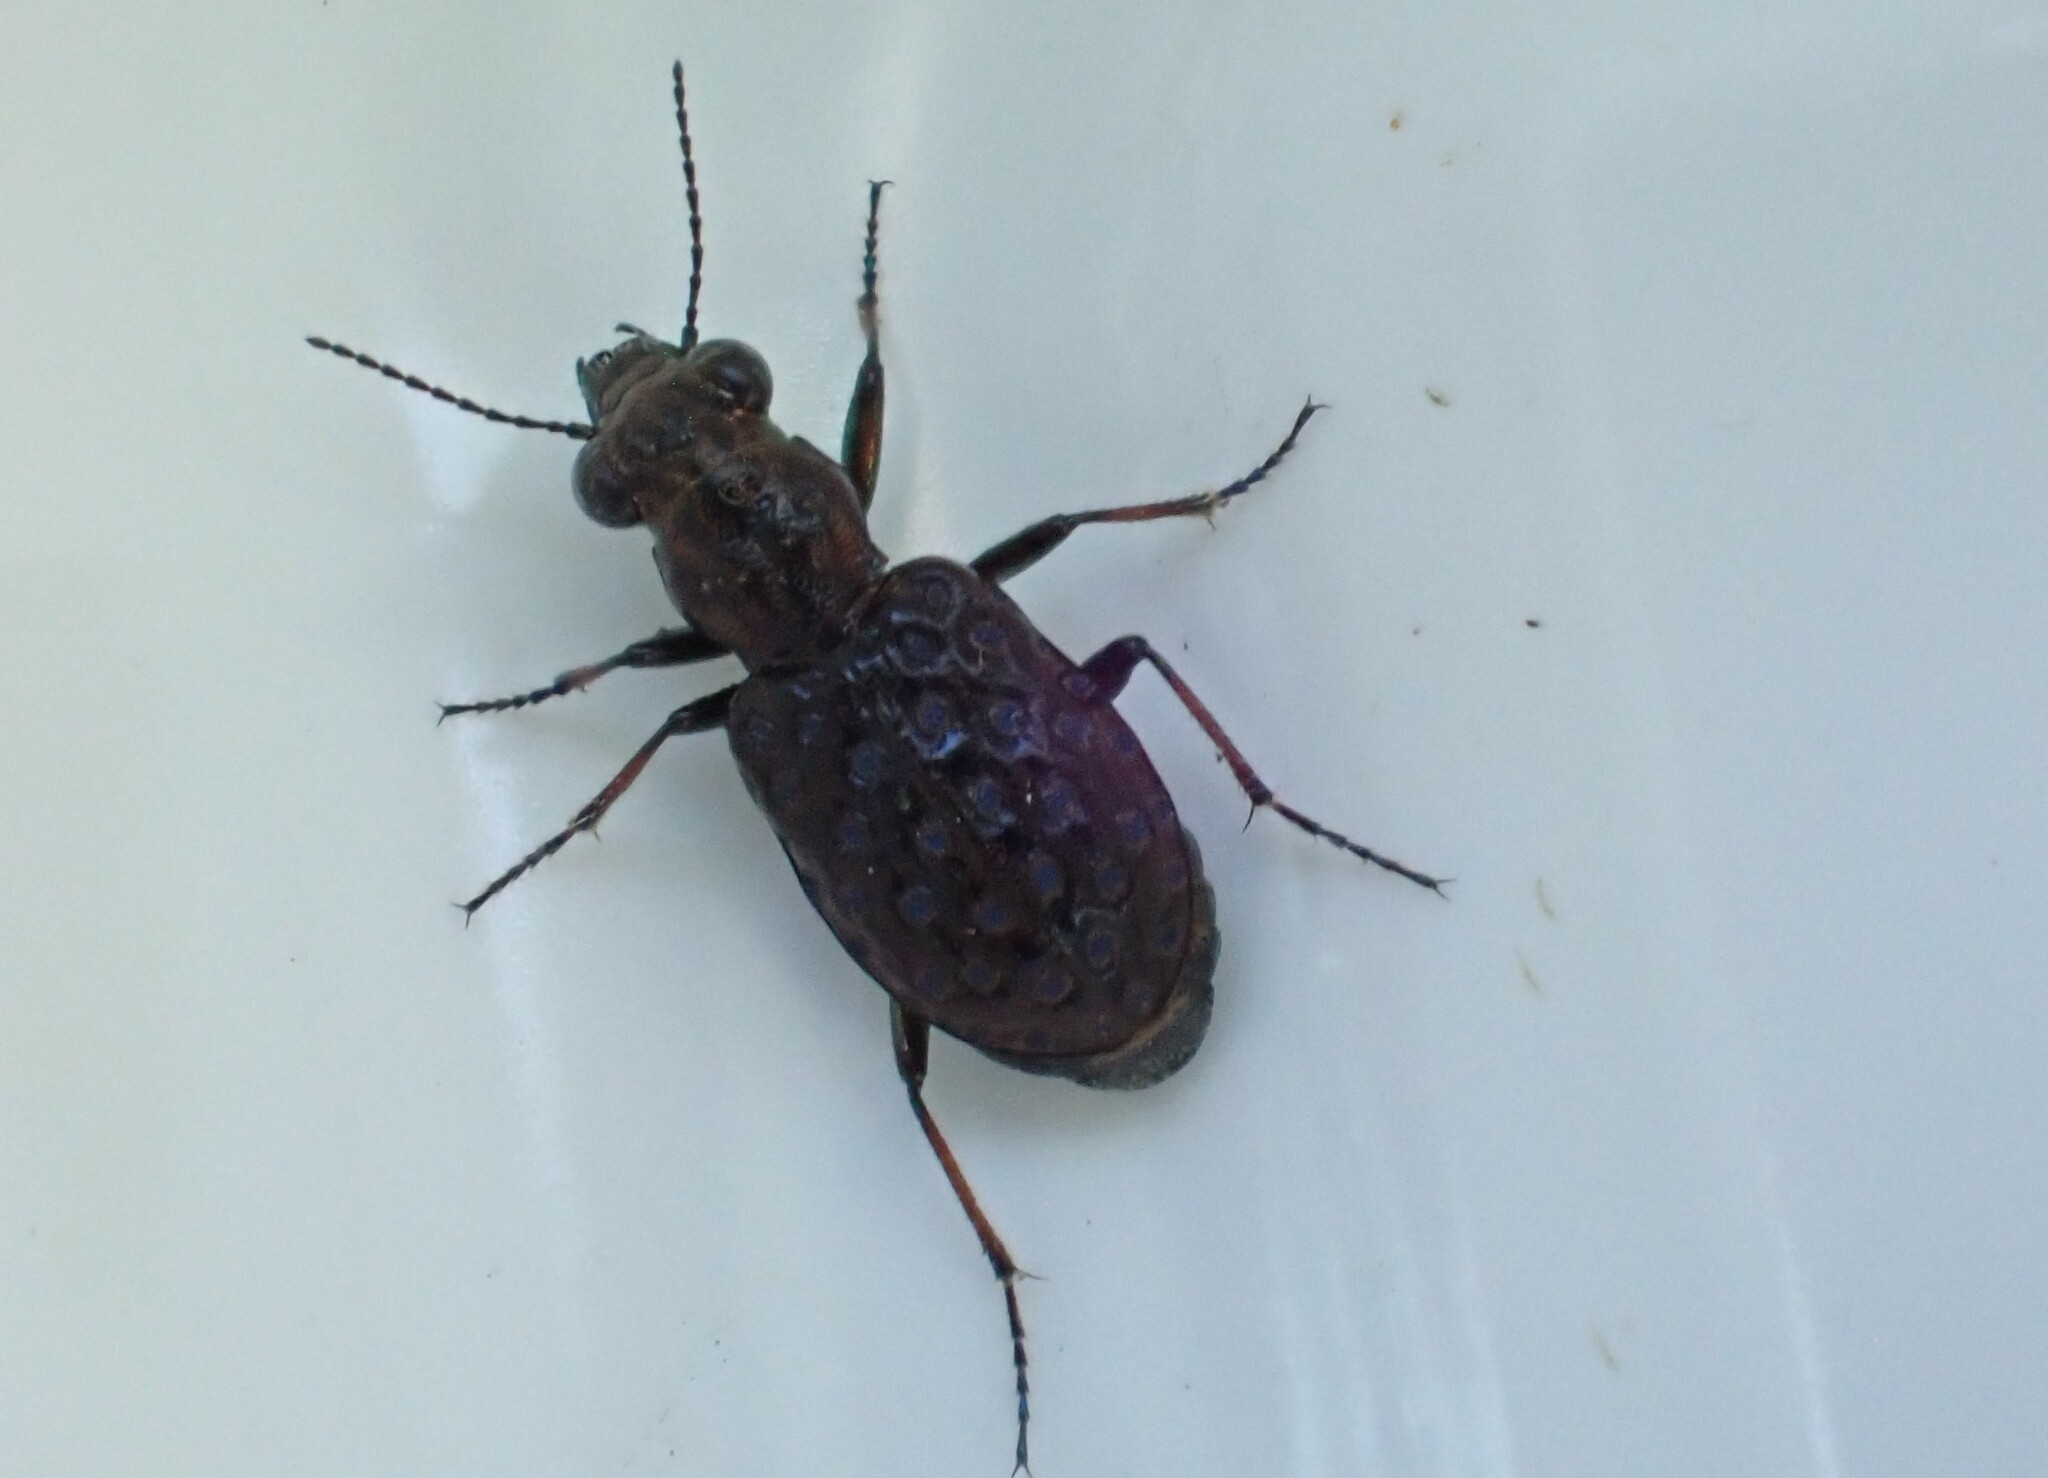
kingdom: Animalia
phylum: Arthropoda
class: Insecta
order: Coleoptera
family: Carabidae
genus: Elaphrus
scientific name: Elaphrus cupreus
